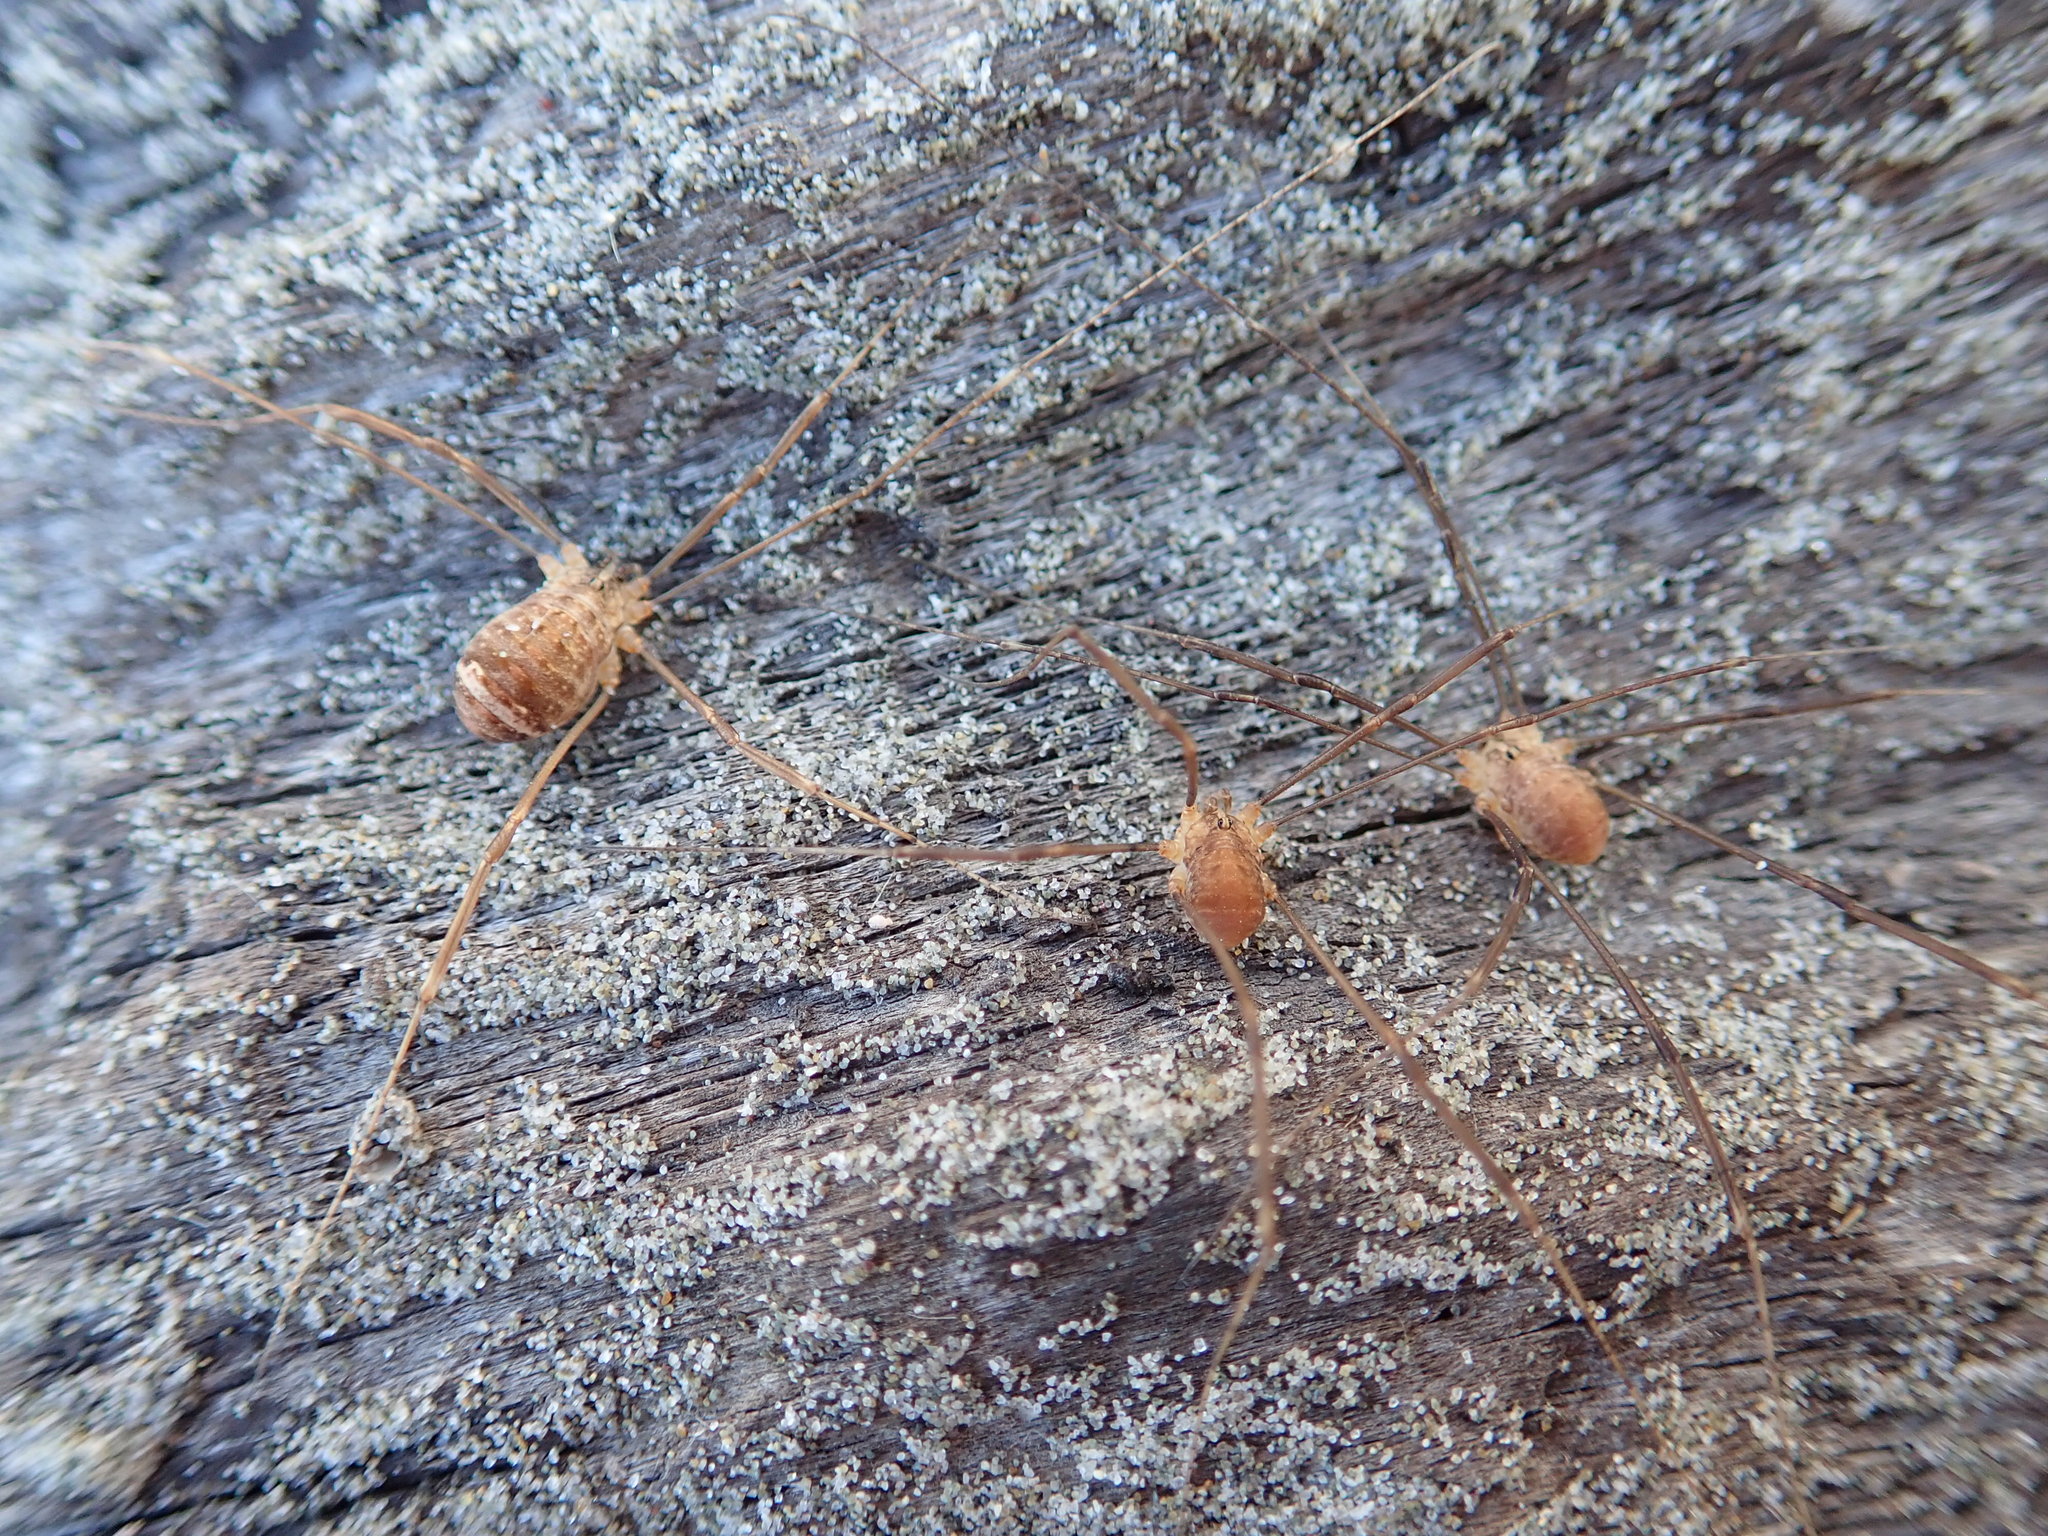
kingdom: Animalia
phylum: Arthropoda
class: Arachnida
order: Opiliones
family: Sclerosomatidae
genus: Nelima
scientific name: Nelima doriae
